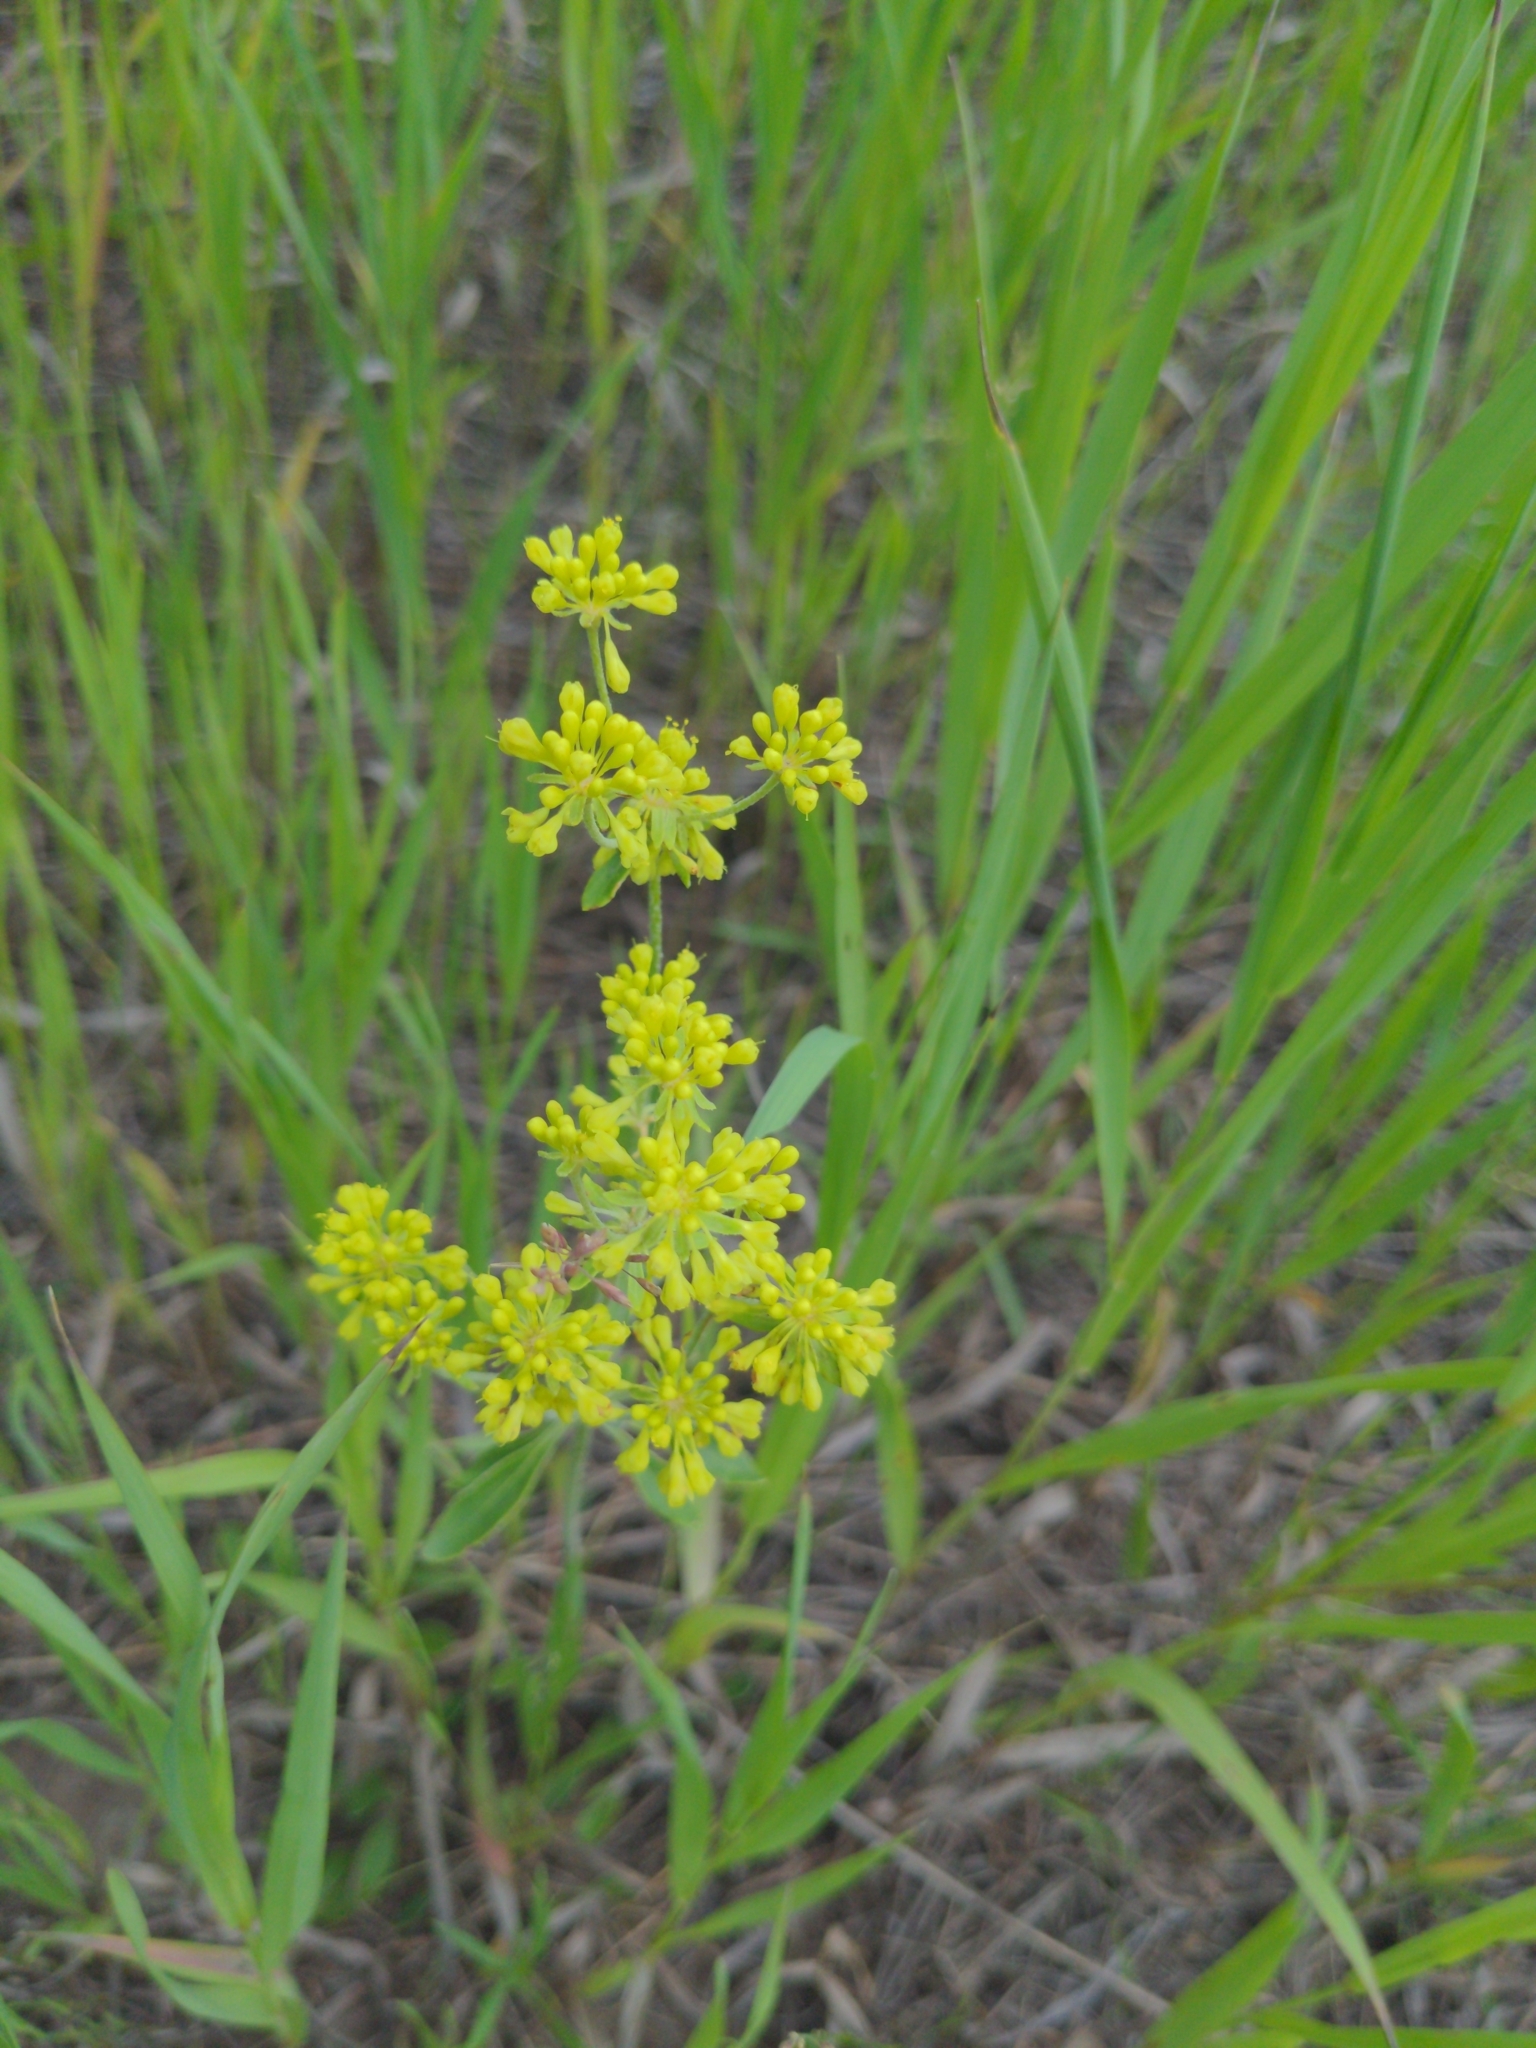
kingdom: Plantae
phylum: Tracheophyta
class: Magnoliopsida
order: Caryophyllales
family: Polygonaceae
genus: Eriogonum
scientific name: Eriogonum umbellatum
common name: Sulfur-buckwheat
